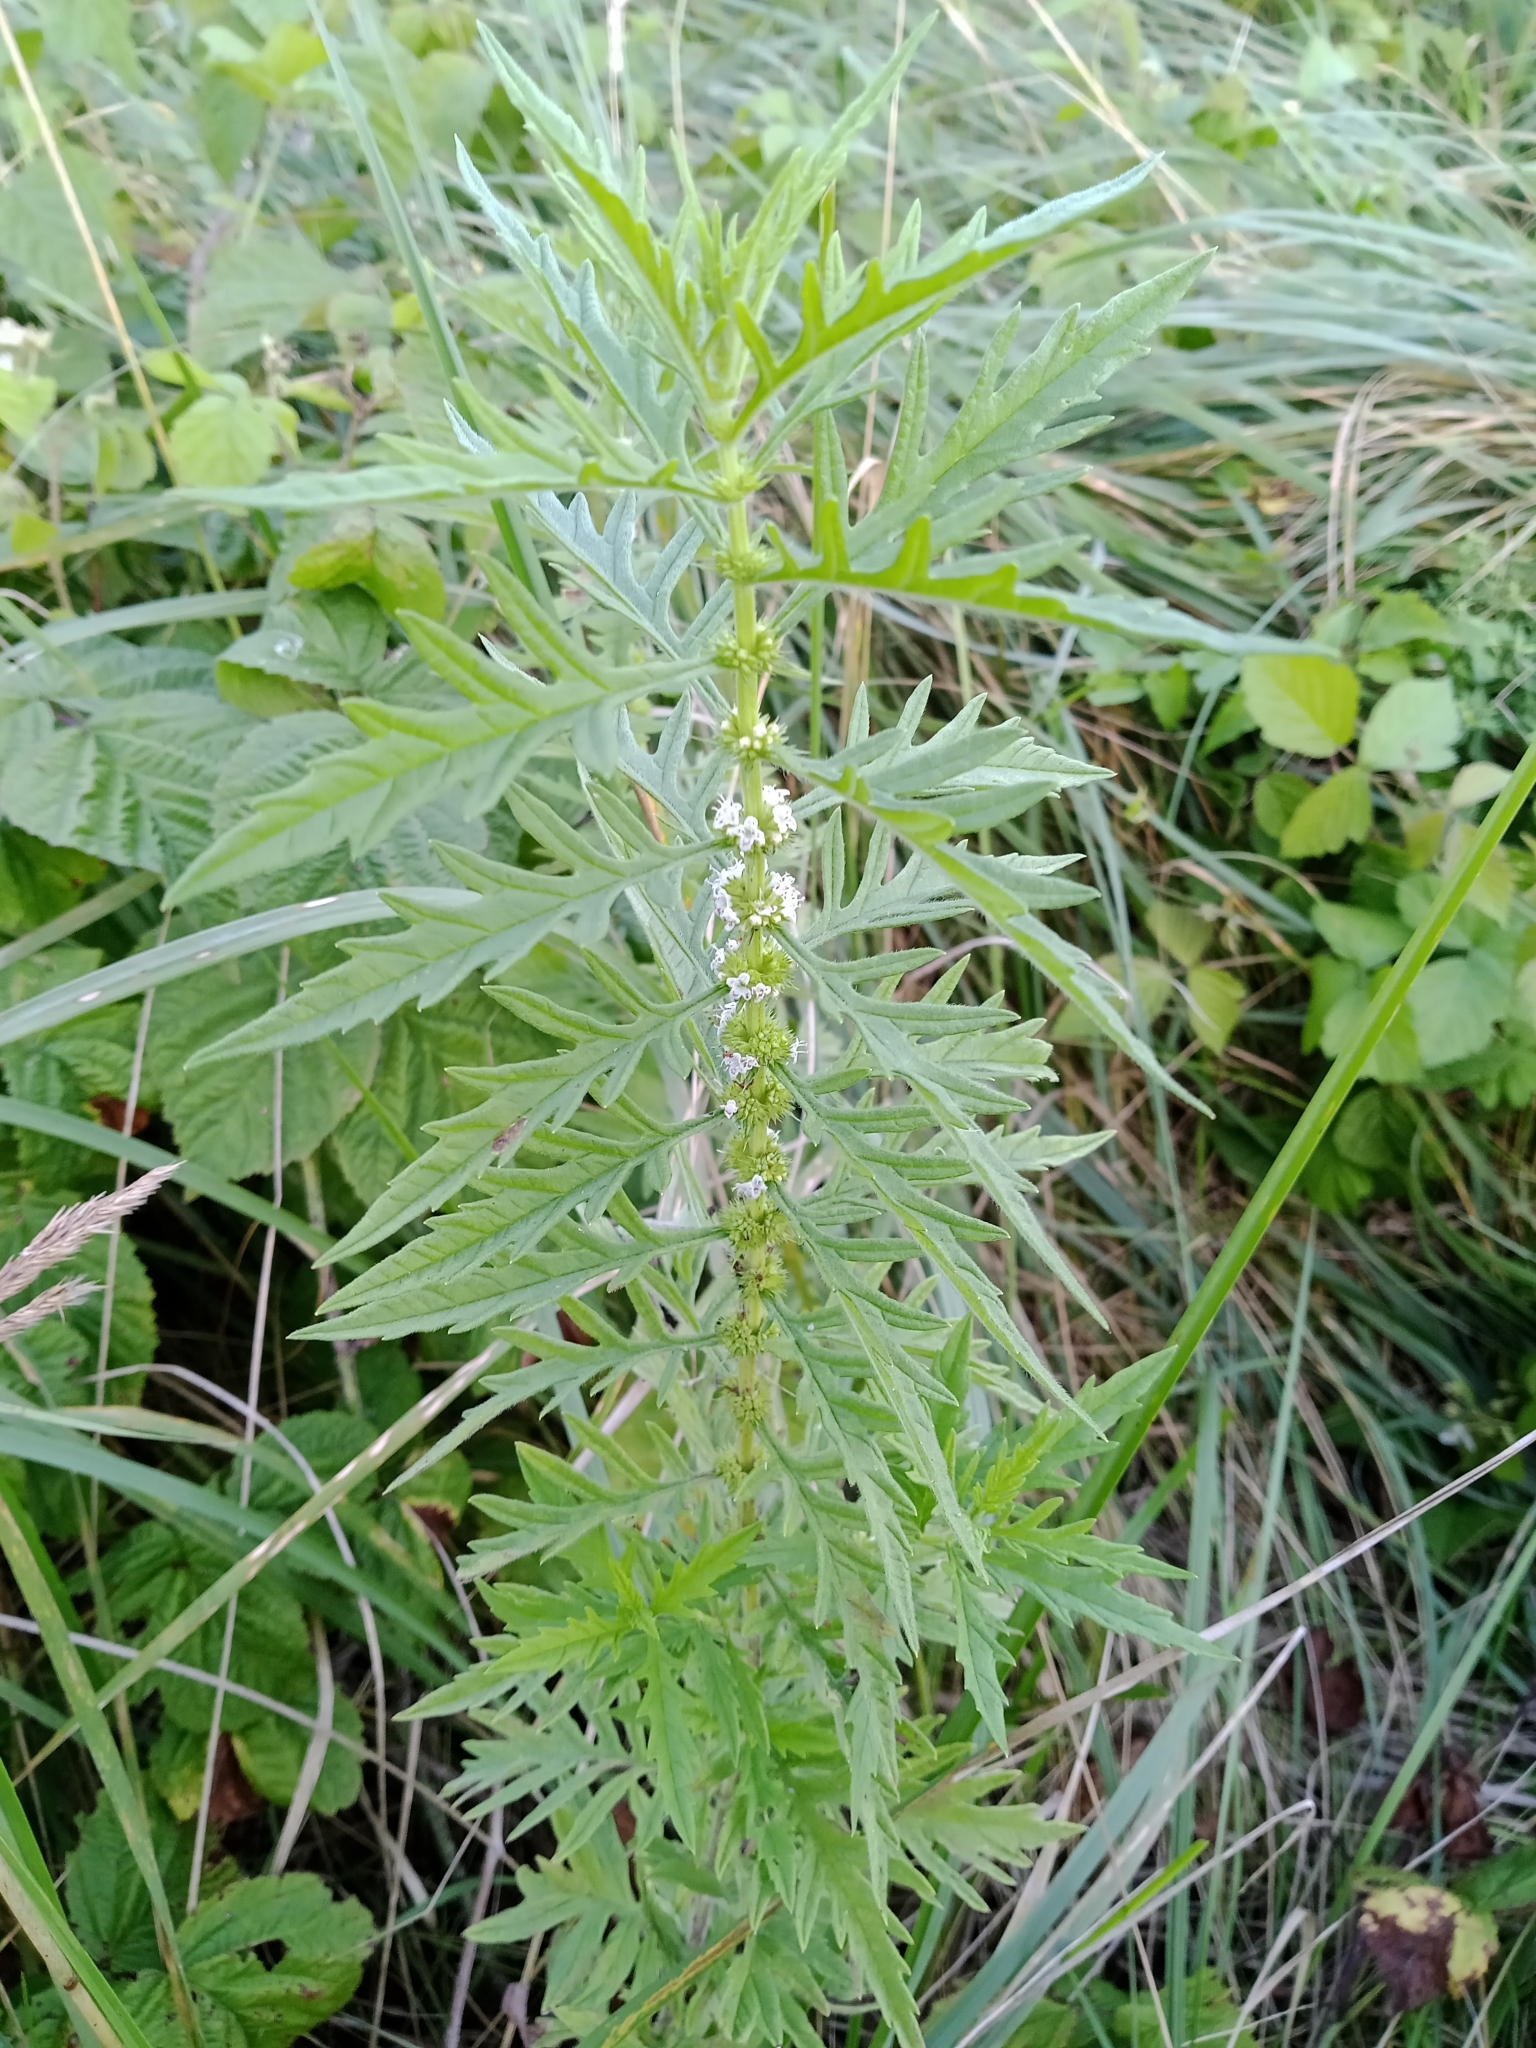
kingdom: Plantae
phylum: Tracheophyta
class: Magnoliopsida
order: Lamiales
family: Lamiaceae
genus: Lycopus
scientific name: Lycopus exaltatus
